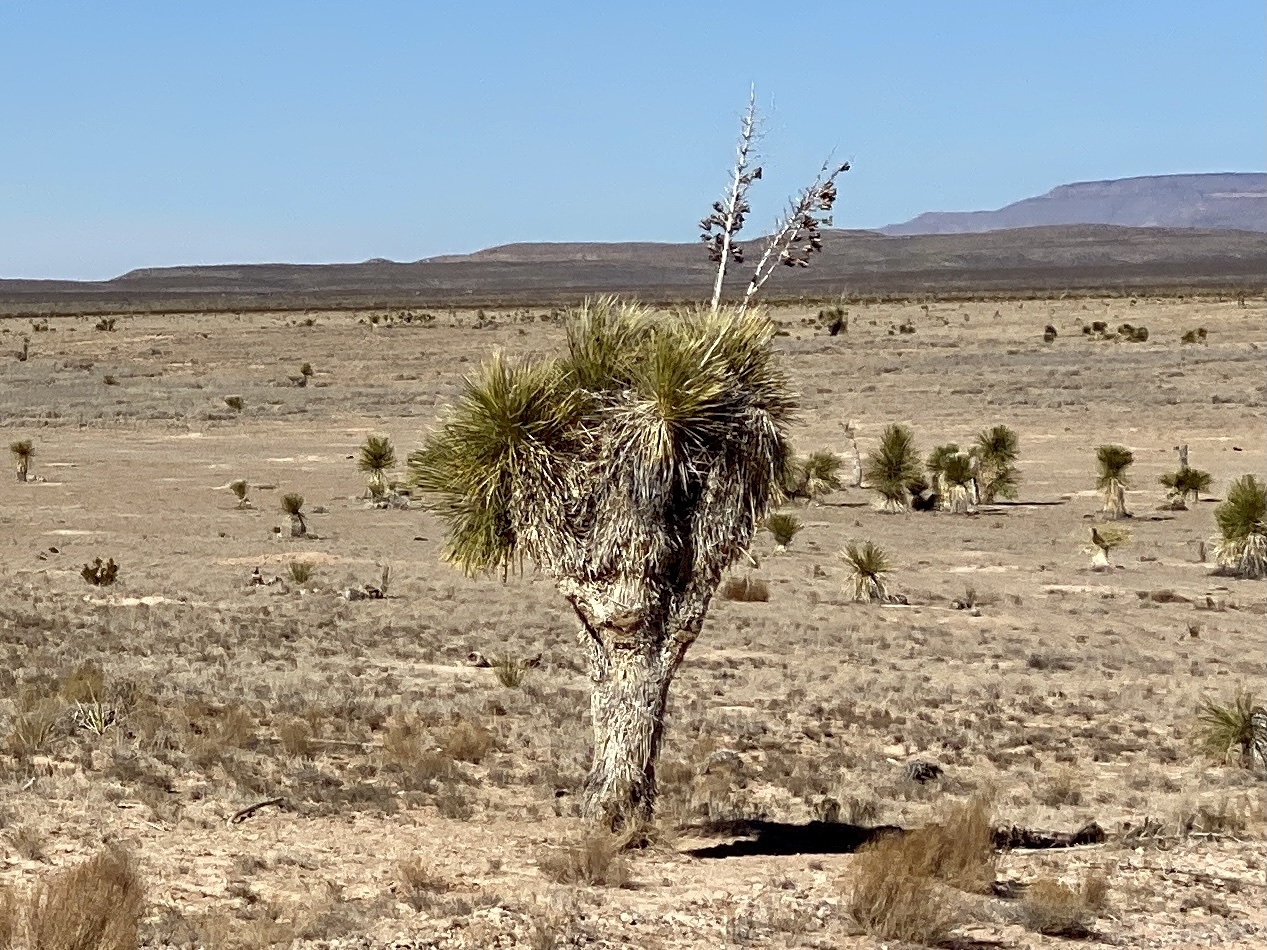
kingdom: Plantae
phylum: Tracheophyta
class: Liliopsida
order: Asparagales
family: Asparagaceae
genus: Yucca
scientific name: Yucca elata
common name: Palmella
